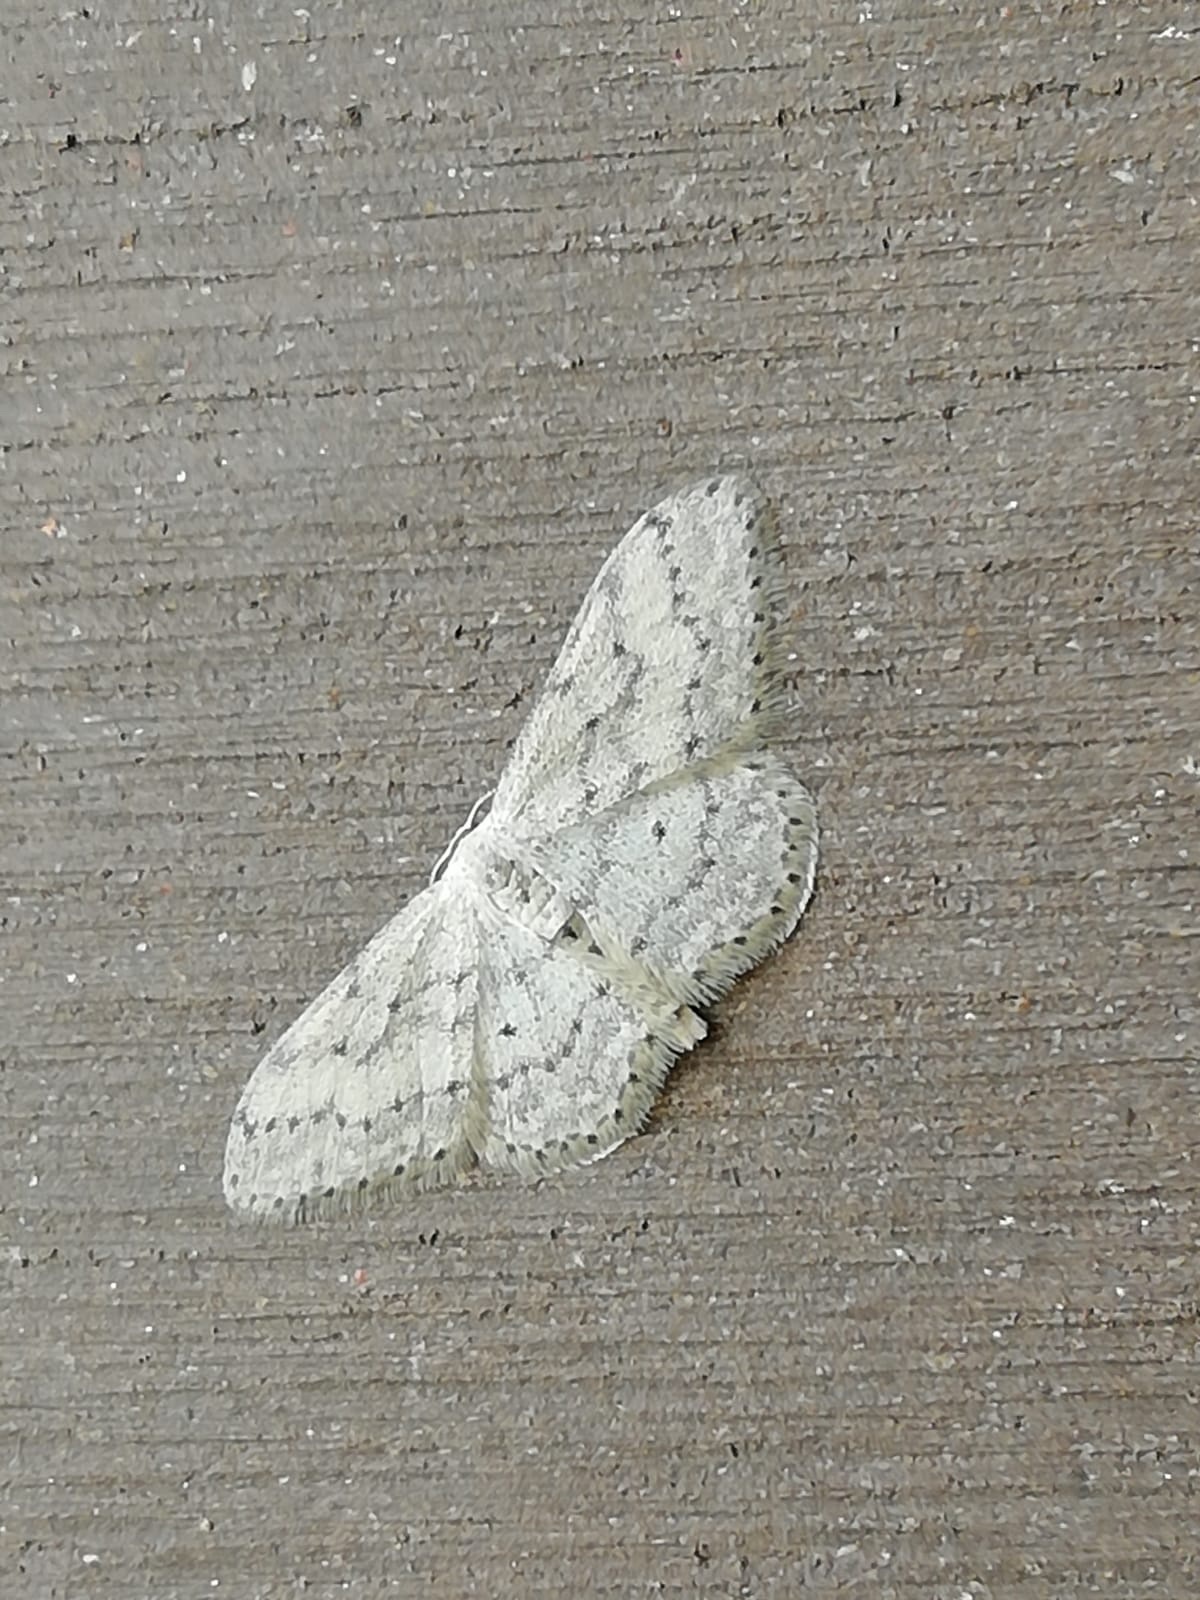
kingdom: Animalia
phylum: Arthropoda
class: Insecta
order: Lepidoptera
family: Geometridae
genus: Idaea
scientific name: Idaea seriata
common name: Small dusty wave
